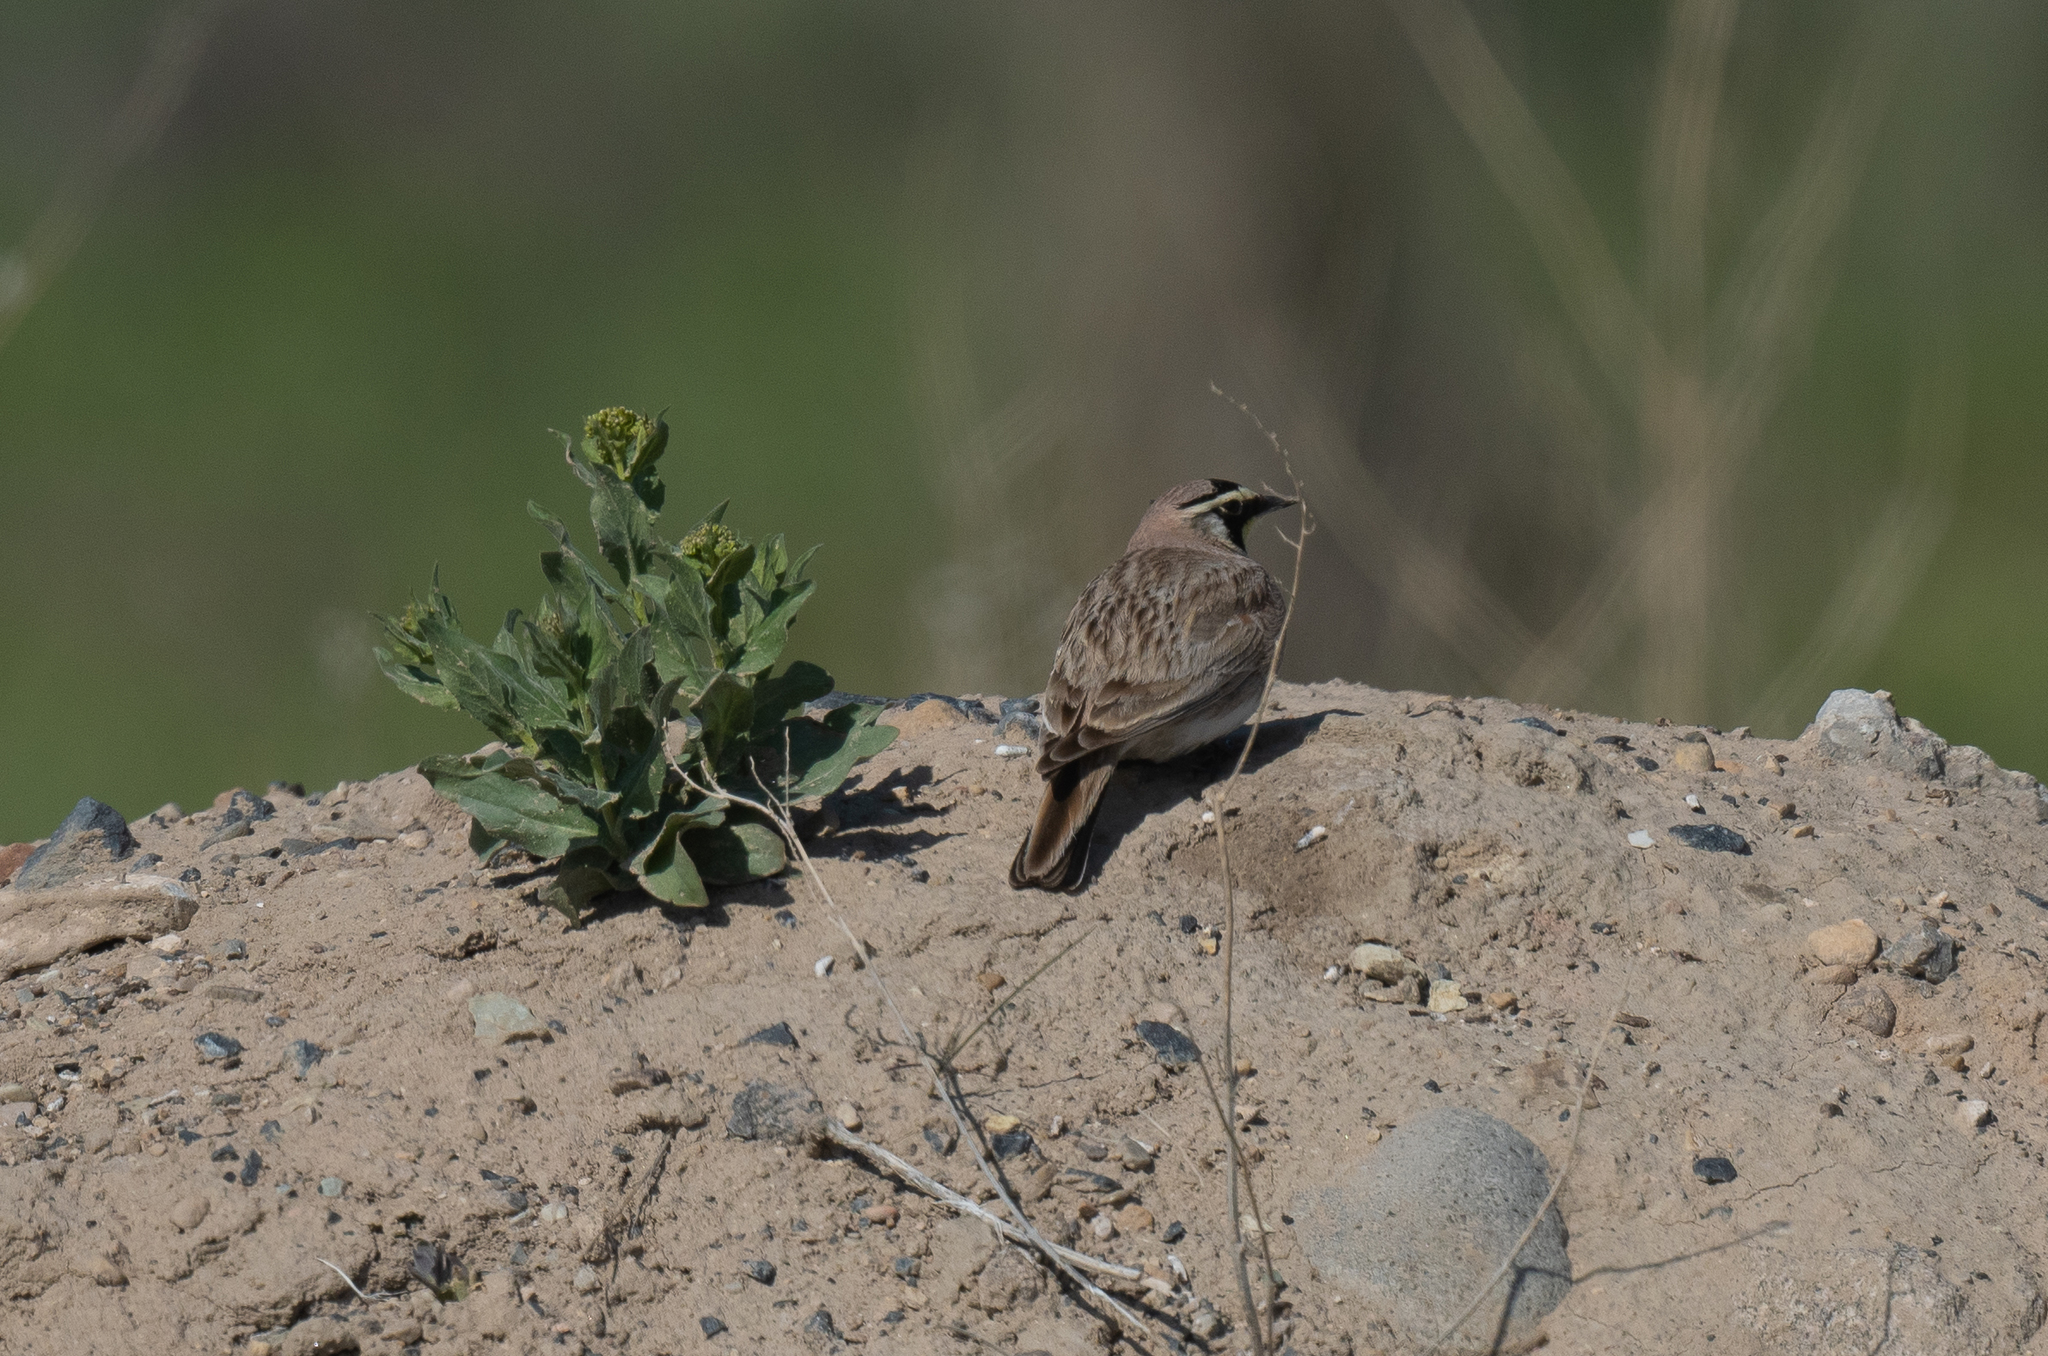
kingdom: Animalia
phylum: Chordata
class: Aves
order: Passeriformes
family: Alaudidae
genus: Eremophila
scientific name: Eremophila alpestris
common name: Horned lark
